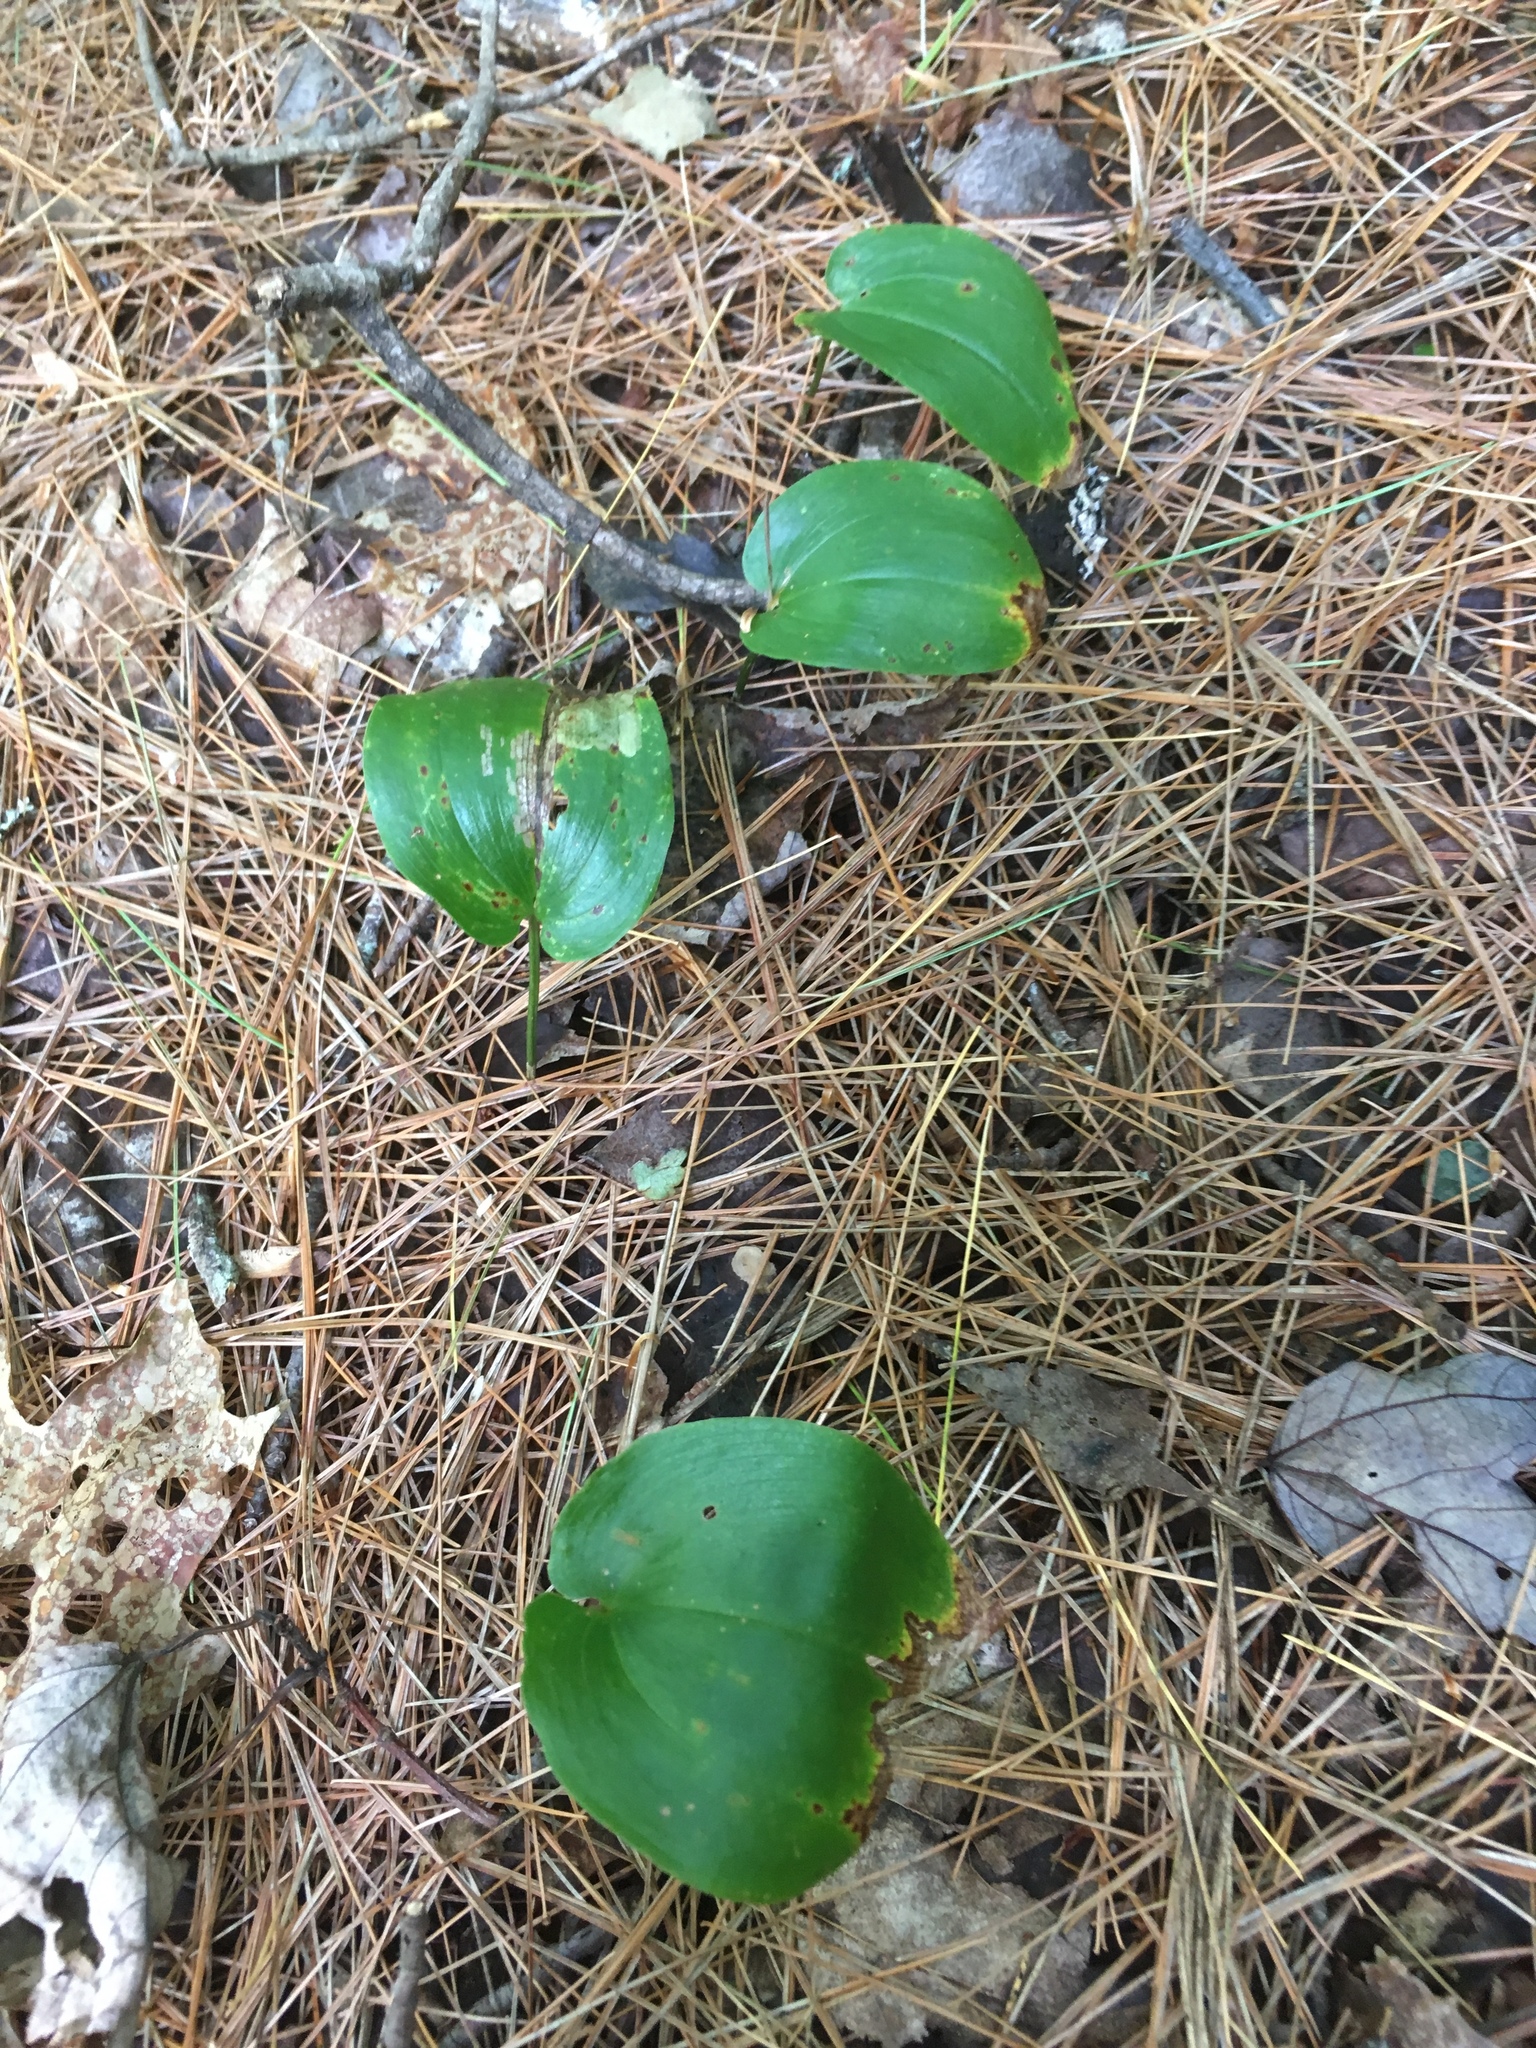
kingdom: Plantae
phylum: Tracheophyta
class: Liliopsida
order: Asparagales
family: Asparagaceae
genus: Maianthemum
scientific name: Maianthemum canadense
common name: False lily-of-the-valley
